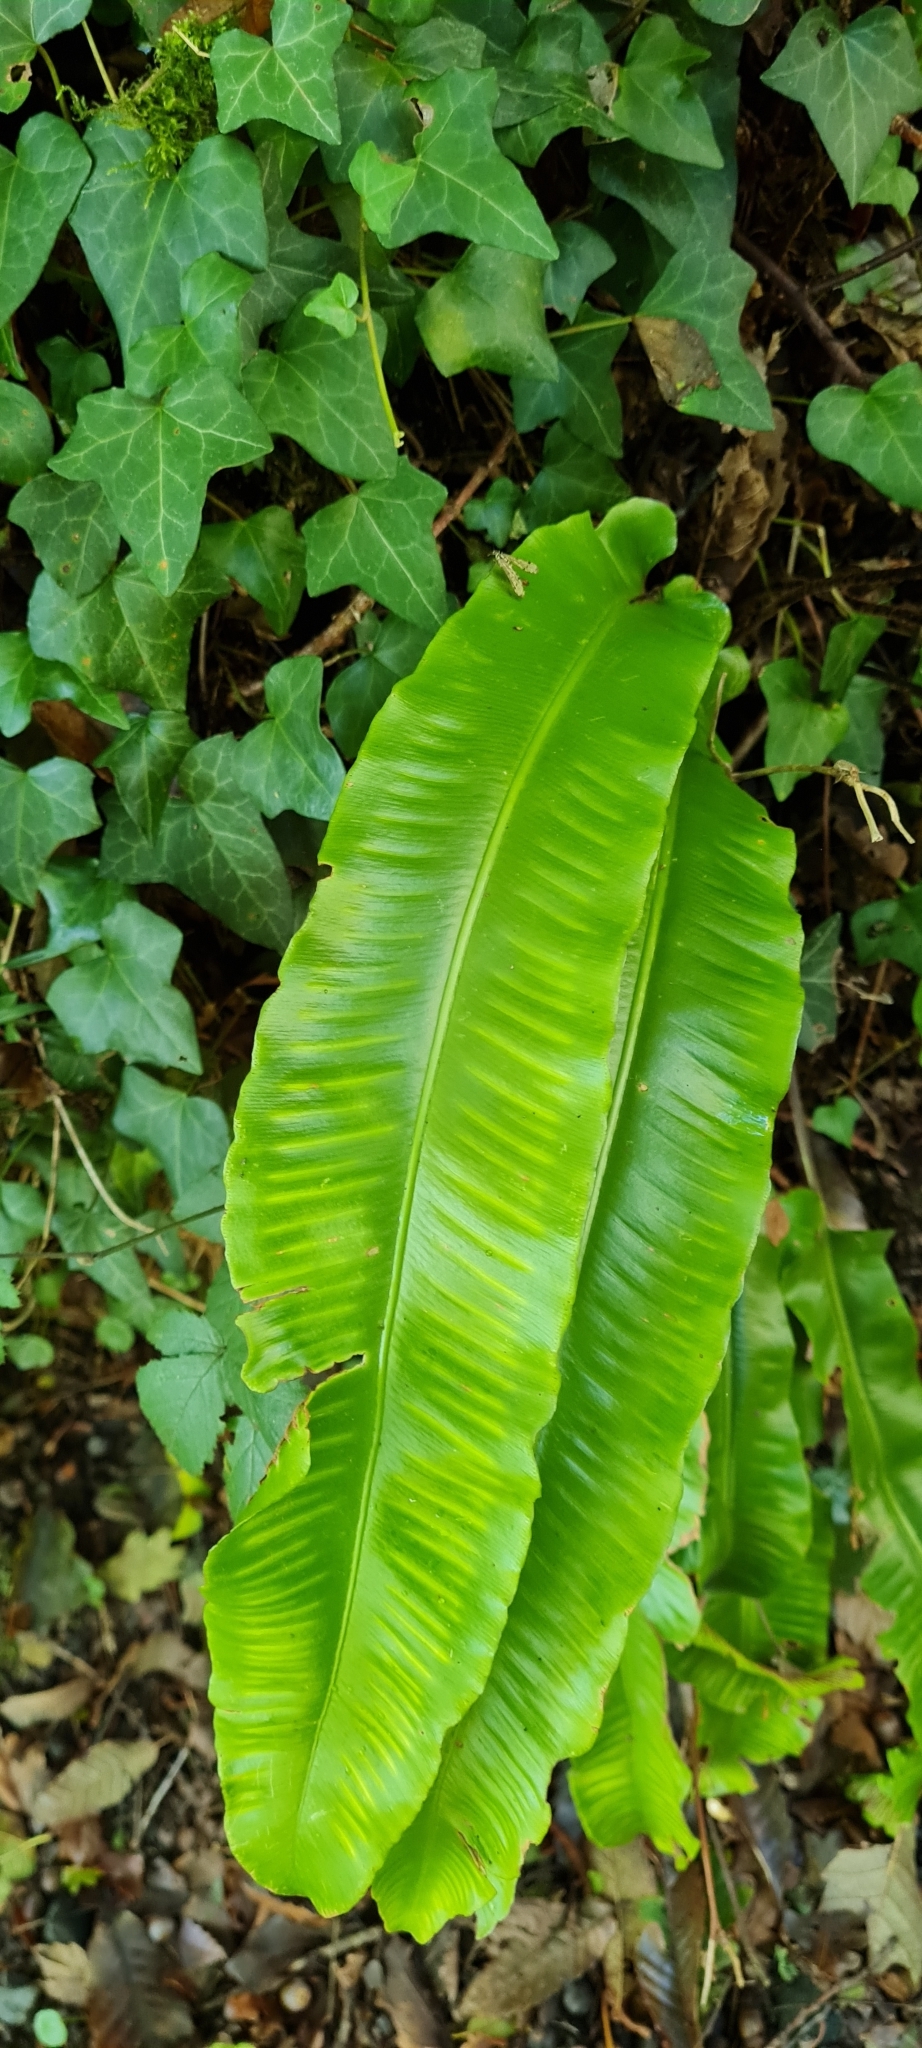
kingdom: Plantae
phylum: Tracheophyta
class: Polypodiopsida
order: Polypodiales
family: Aspleniaceae
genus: Asplenium
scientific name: Asplenium scolopendrium
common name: Hart's-tongue fern
